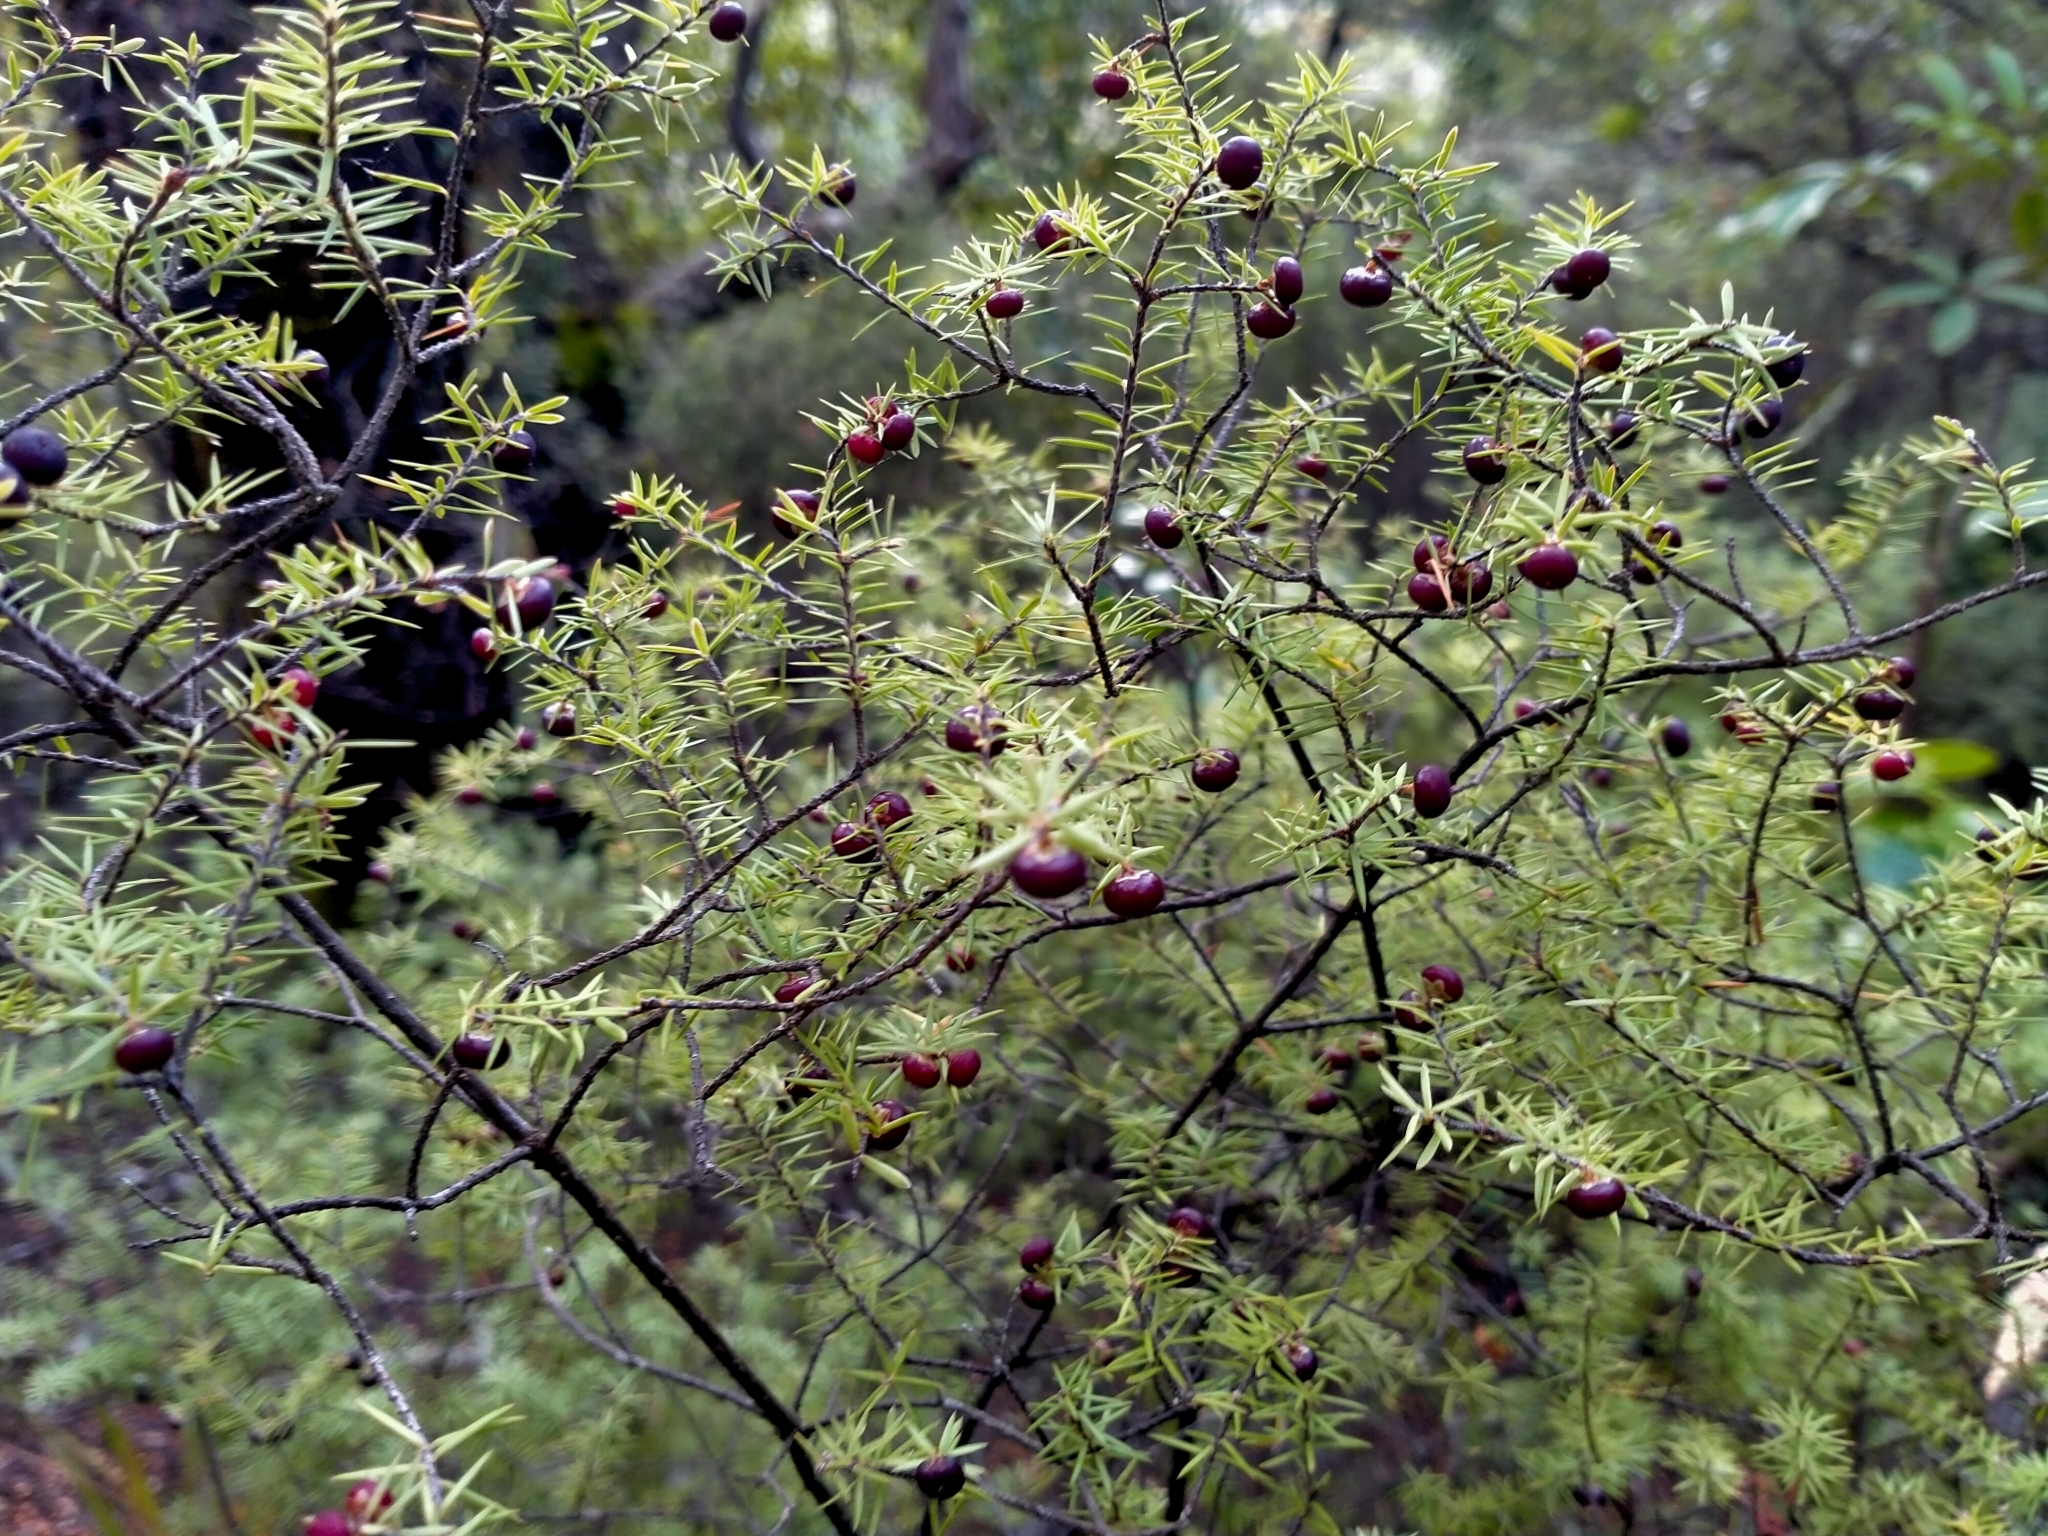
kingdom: Plantae
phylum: Tracheophyta
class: Magnoliopsida
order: Ericales
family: Ericaceae
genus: Leptecophylla
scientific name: Leptecophylla juniperina
